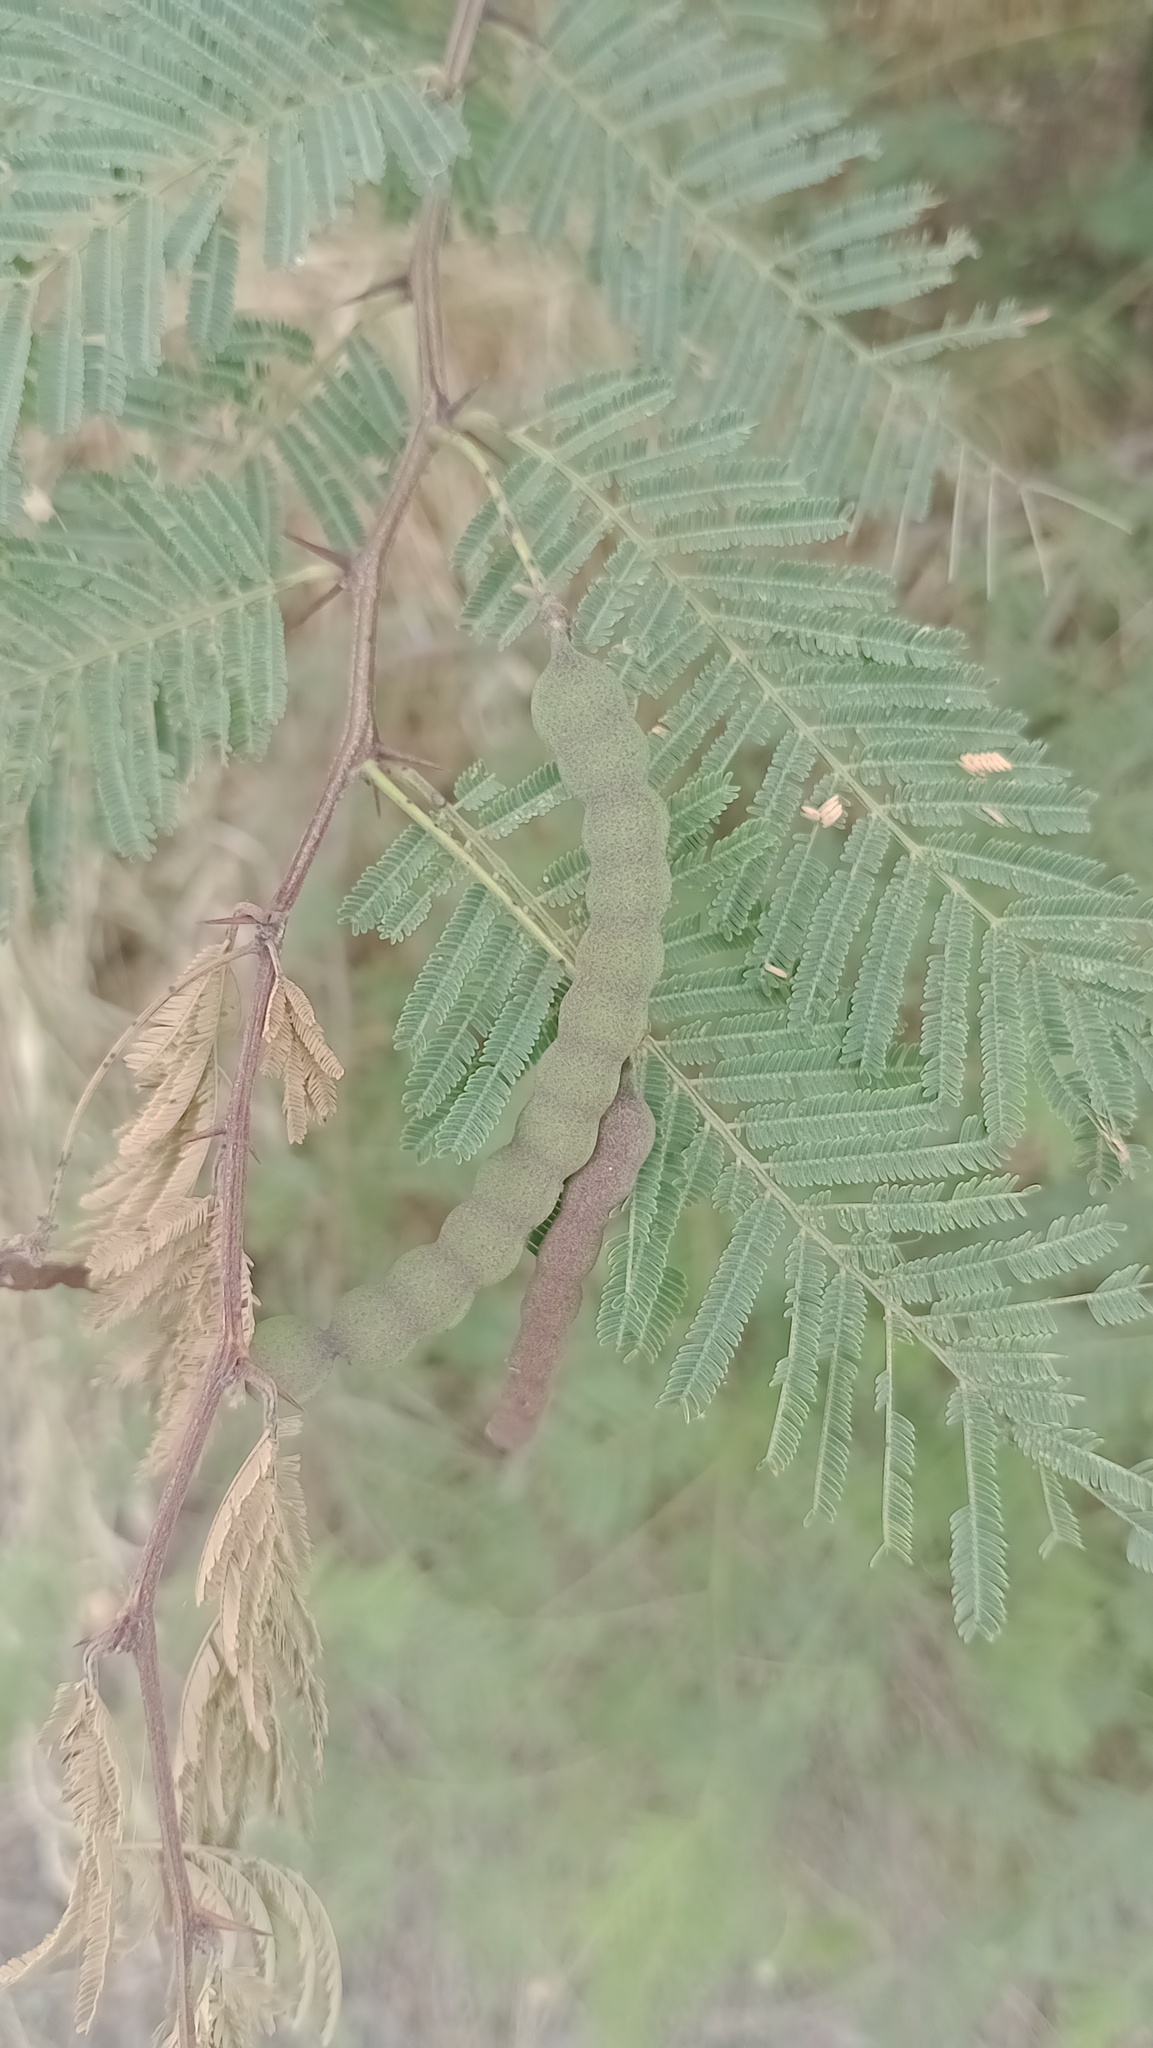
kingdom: Plantae
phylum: Tracheophyta
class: Magnoliopsida
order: Fabales
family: Fabaceae
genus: Vachellia
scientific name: Vachellia aroma
